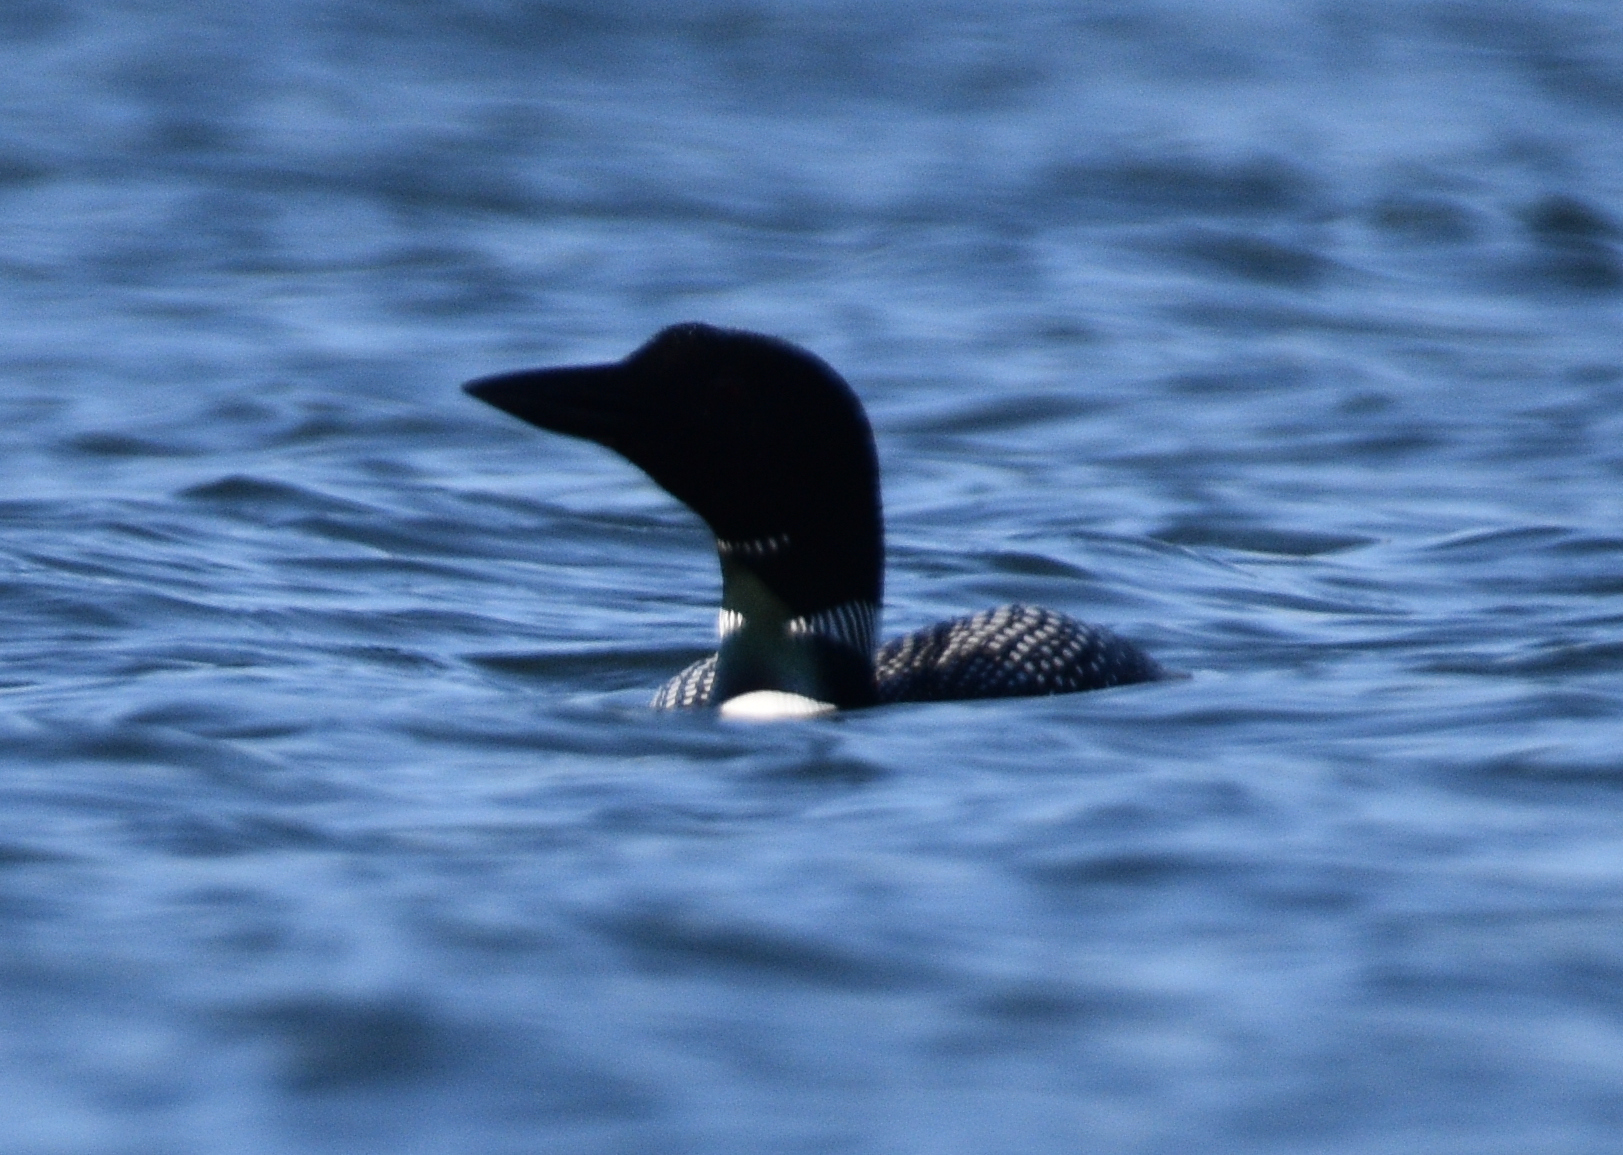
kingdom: Animalia
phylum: Chordata
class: Aves
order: Gaviiformes
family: Gaviidae
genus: Gavia
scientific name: Gavia immer
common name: Common loon
